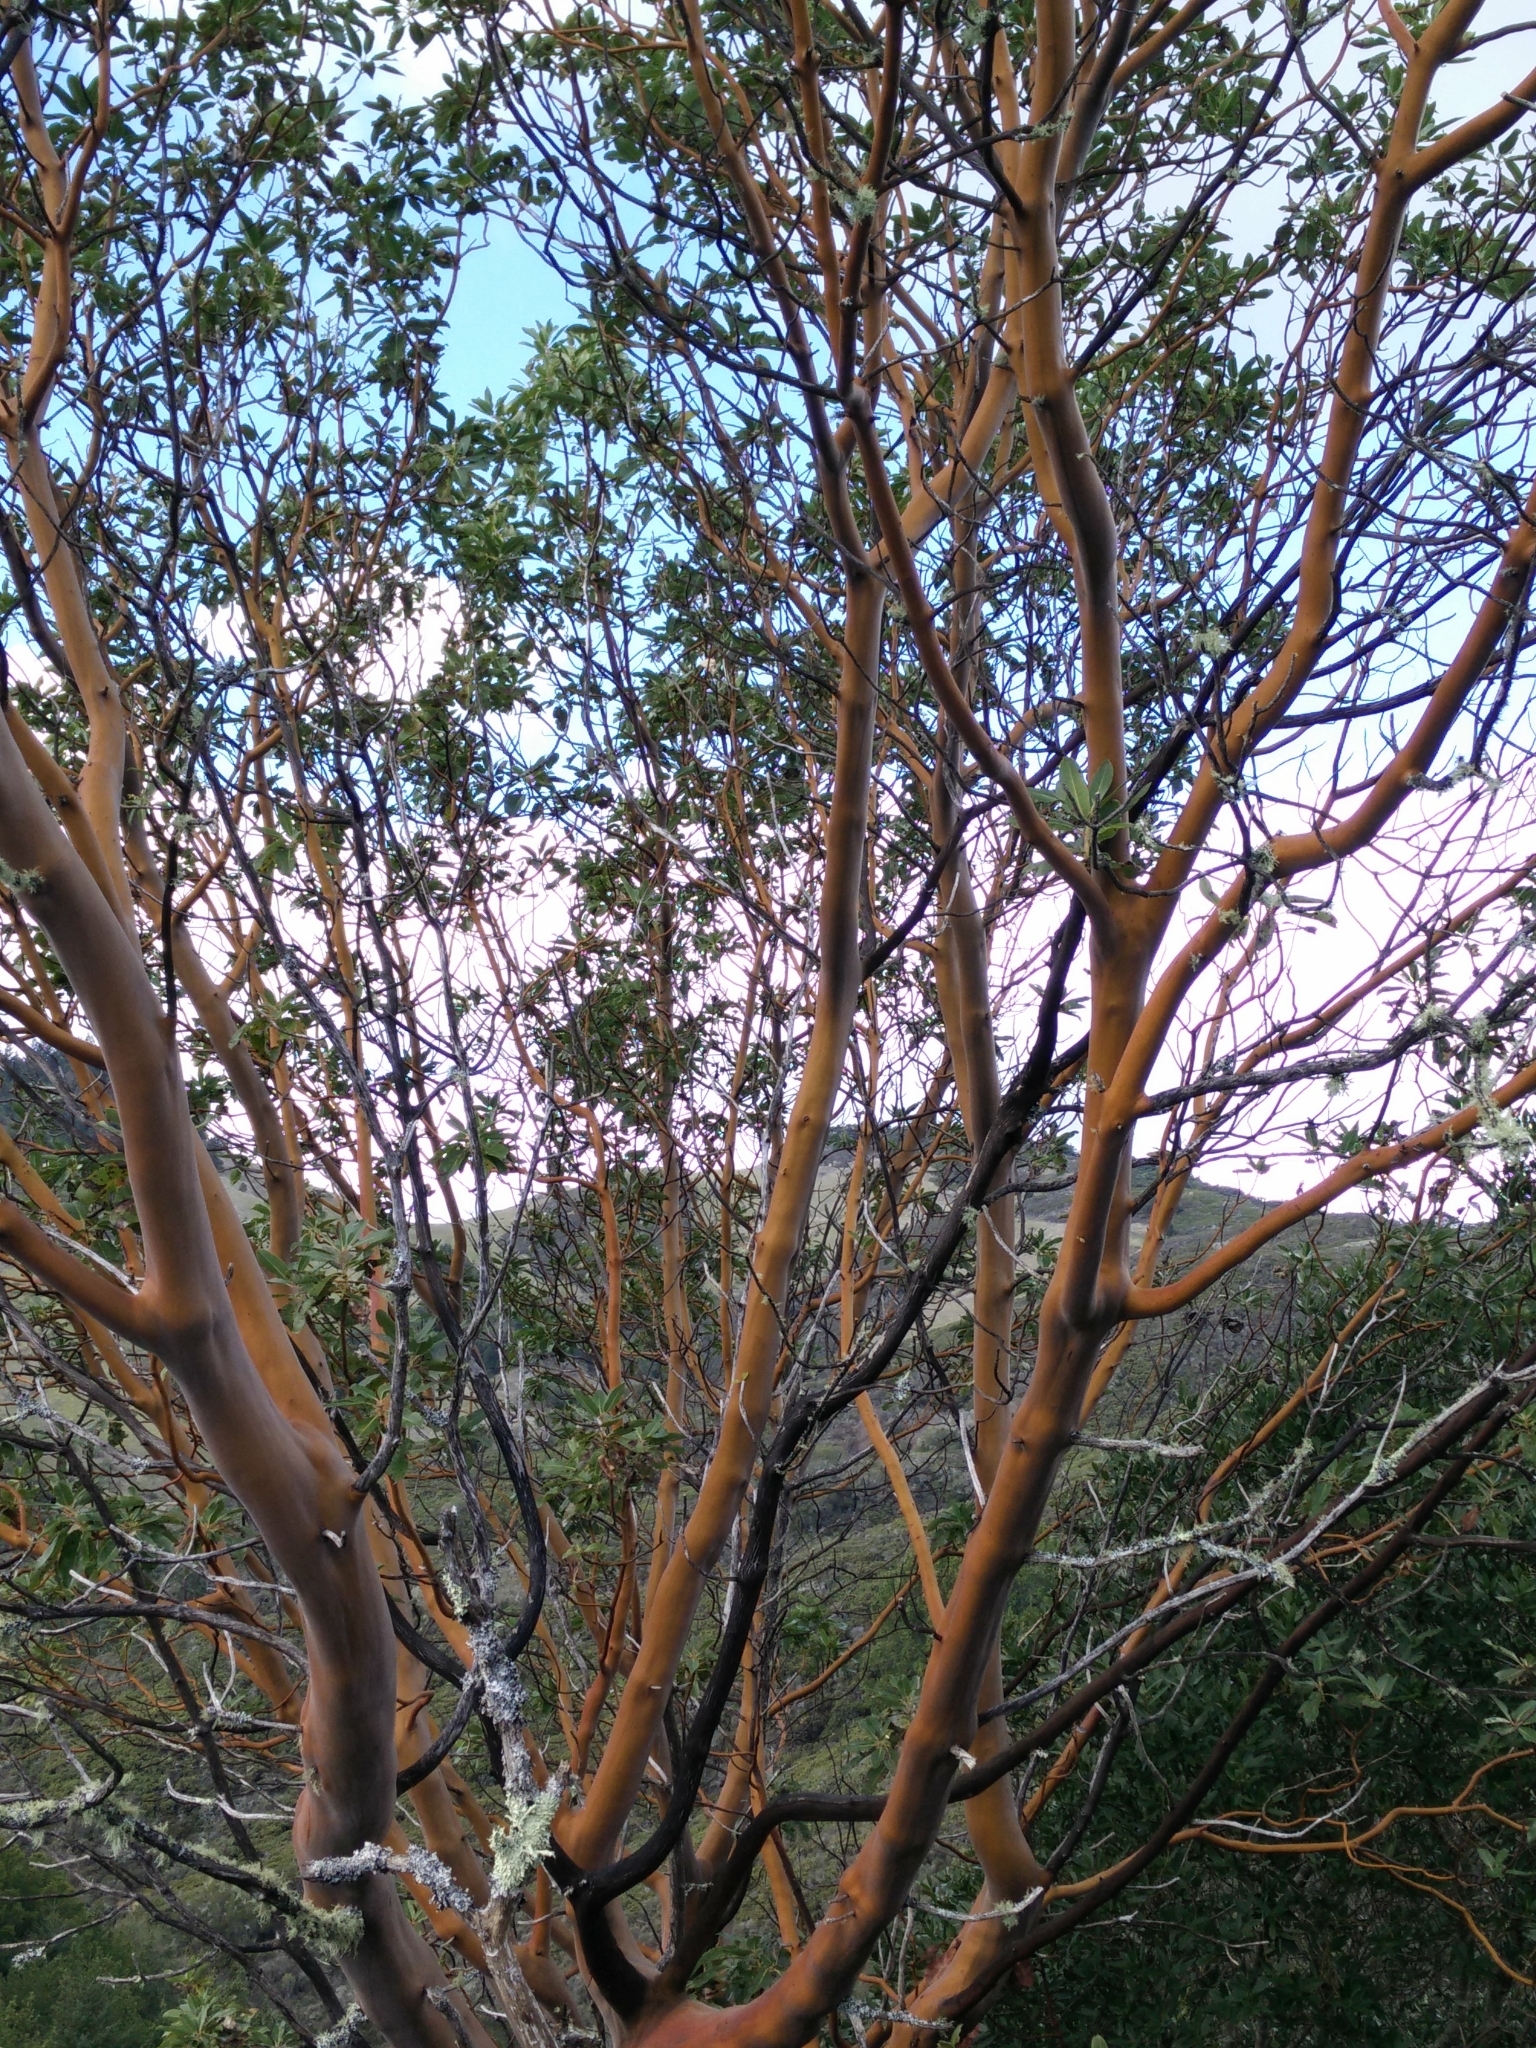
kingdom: Plantae
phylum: Tracheophyta
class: Magnoliopsida
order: Ericales
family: Ericaceae
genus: Arbutus
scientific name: Arbutus menziesii
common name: Pacific madrone
